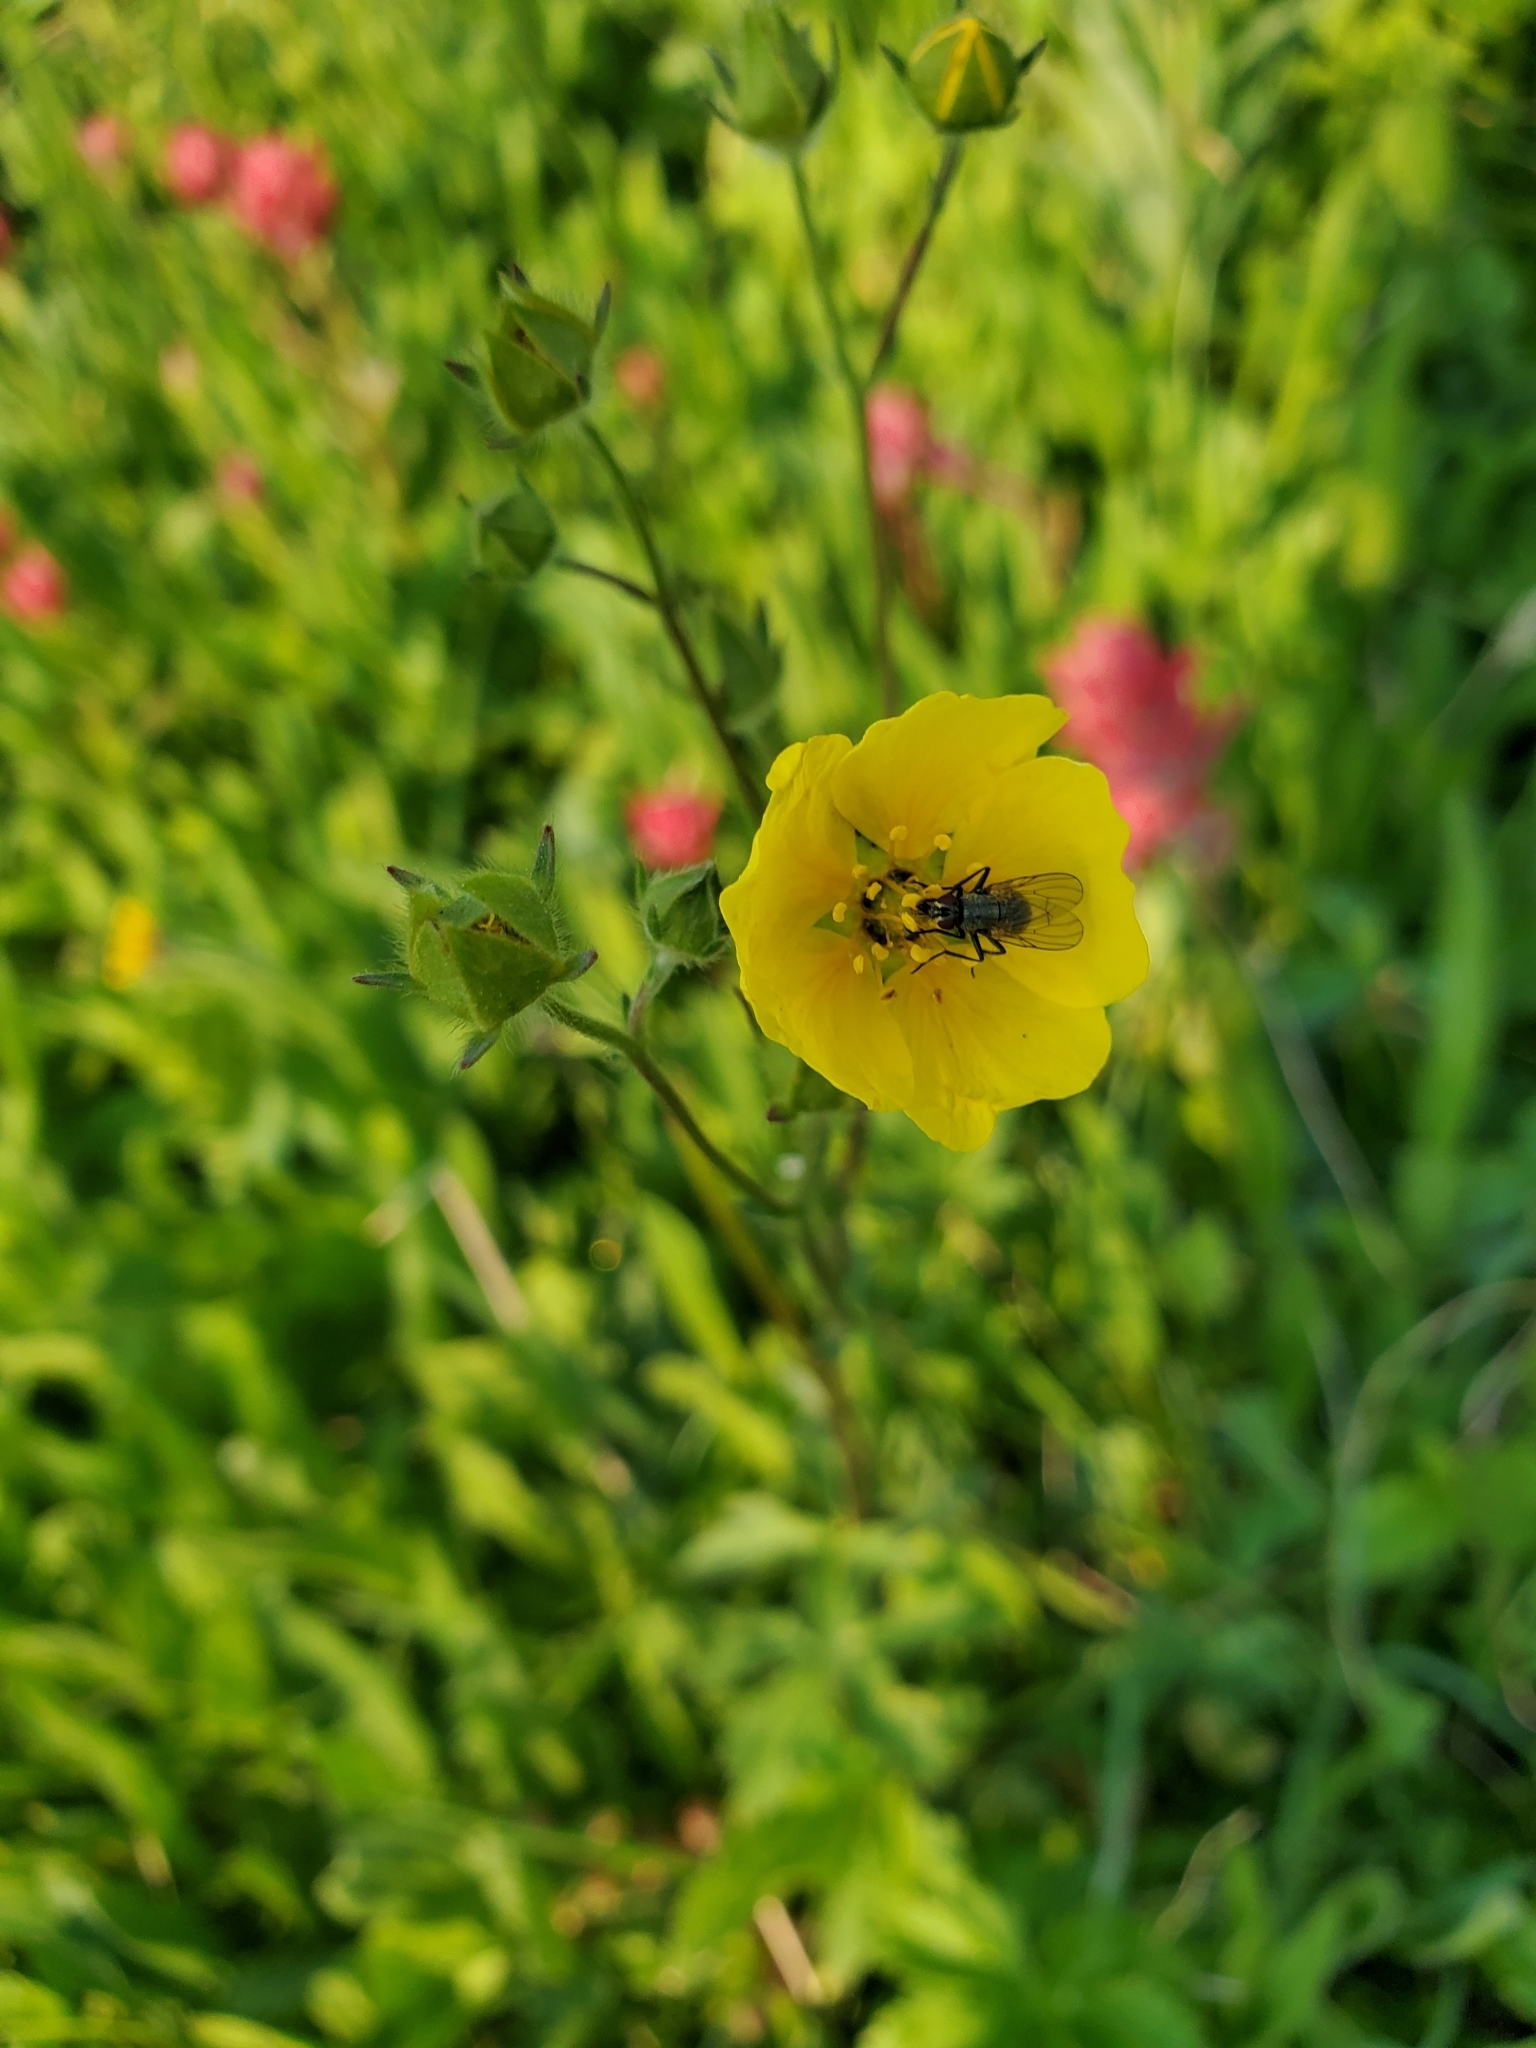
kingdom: Plantae
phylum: Tracheophyta
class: Magnoliopsida
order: Rosales
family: Rosaceae
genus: Potentilla
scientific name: Potentilla glaucophylla
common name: Blue-leaved cinquefoil
